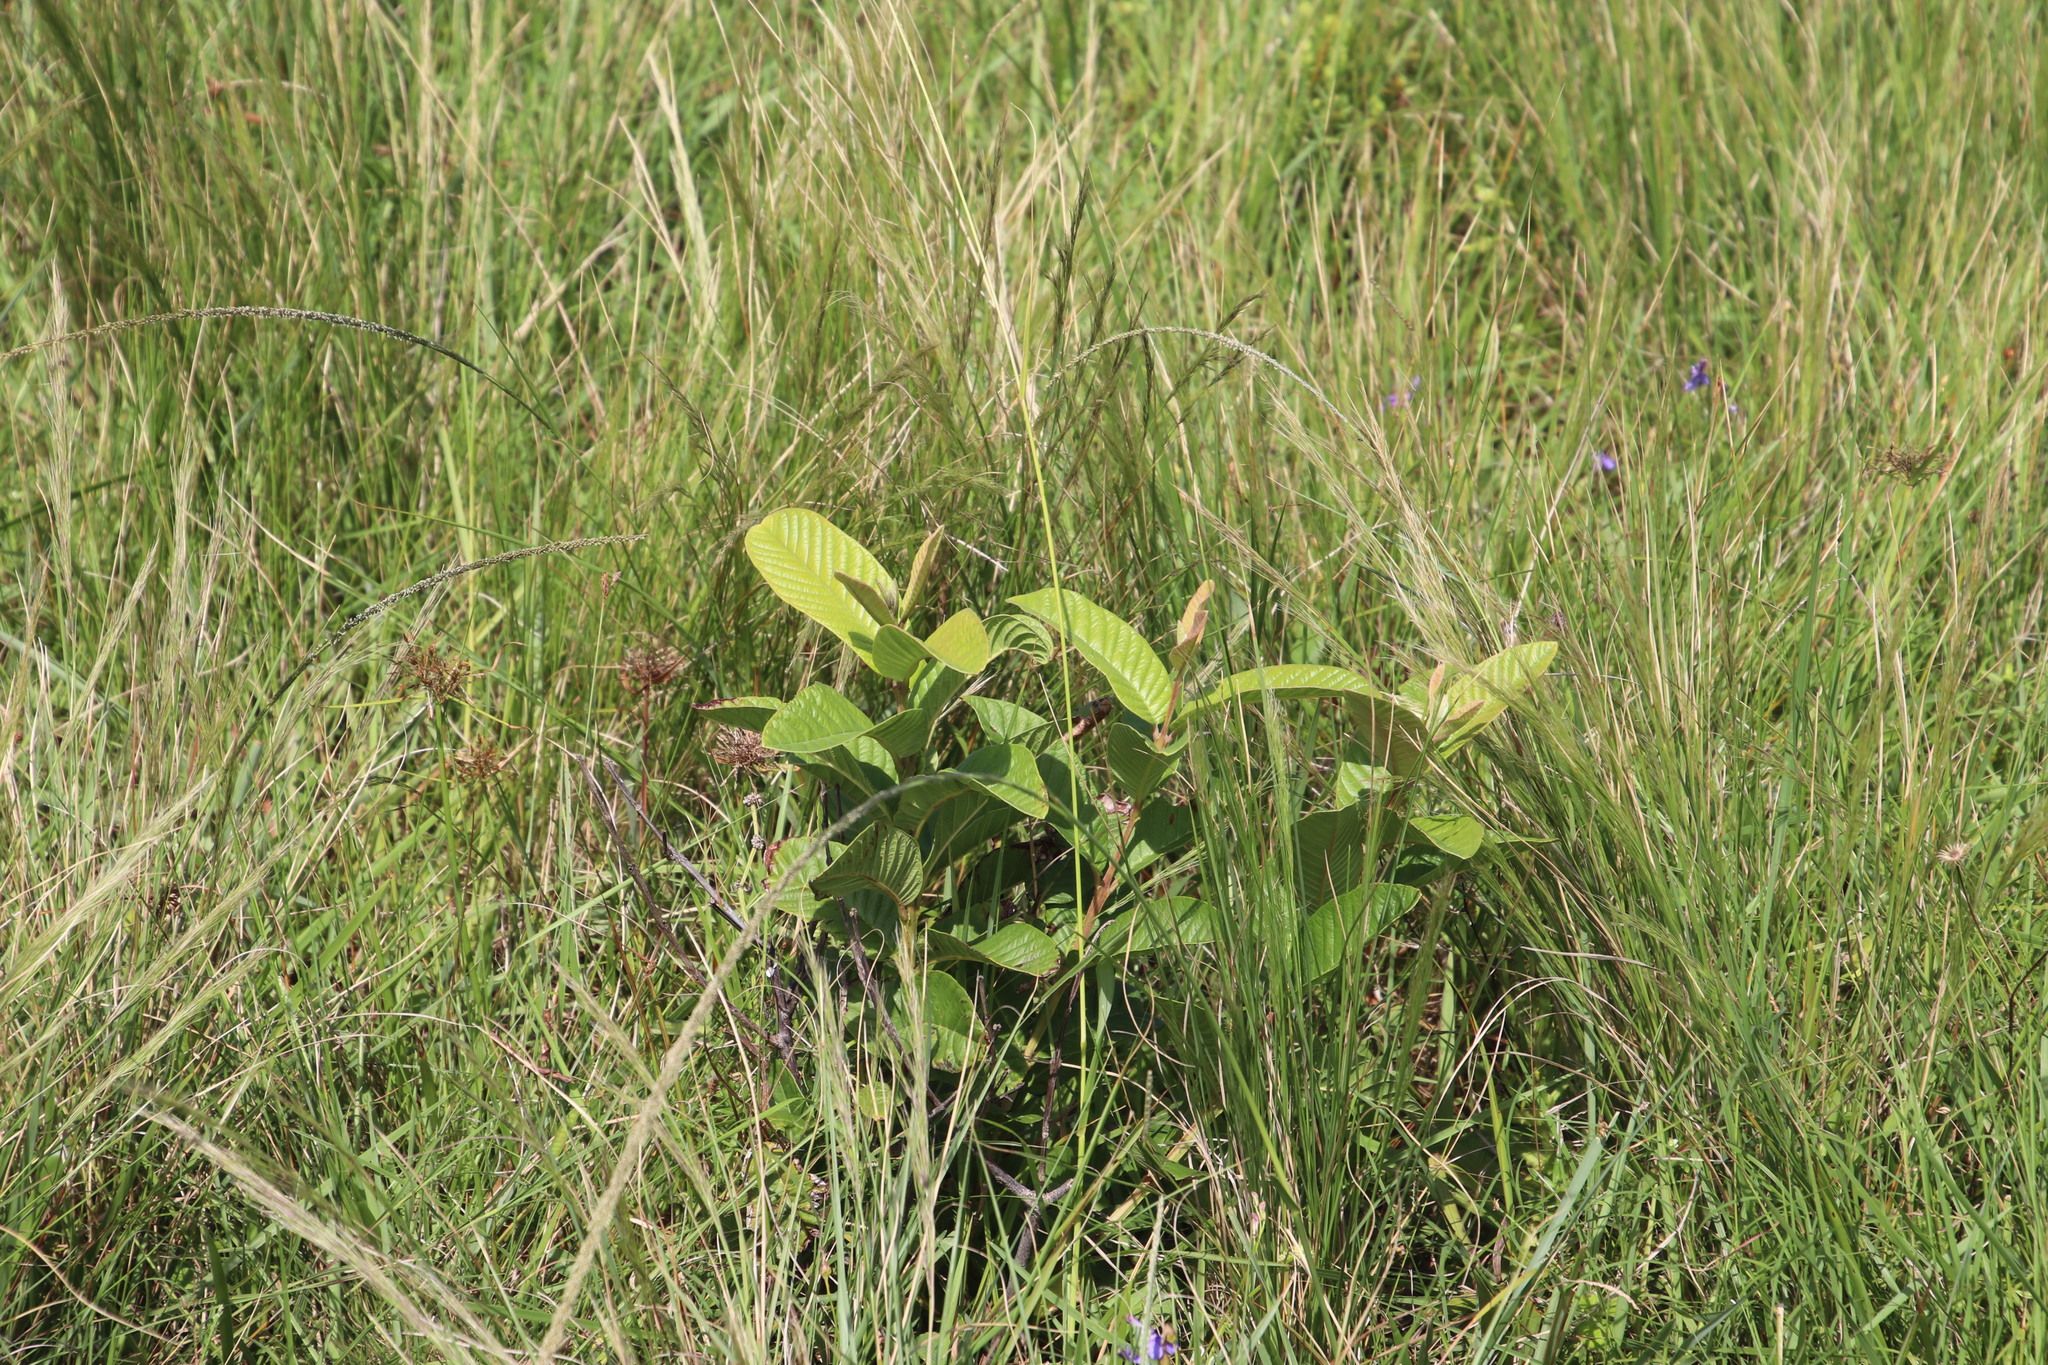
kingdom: Plantae
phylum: Tracheophyta
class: Magnoliopsida
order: Myrtales
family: Myrtaceae
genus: Psidium
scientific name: Psidium guajava
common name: Guava
